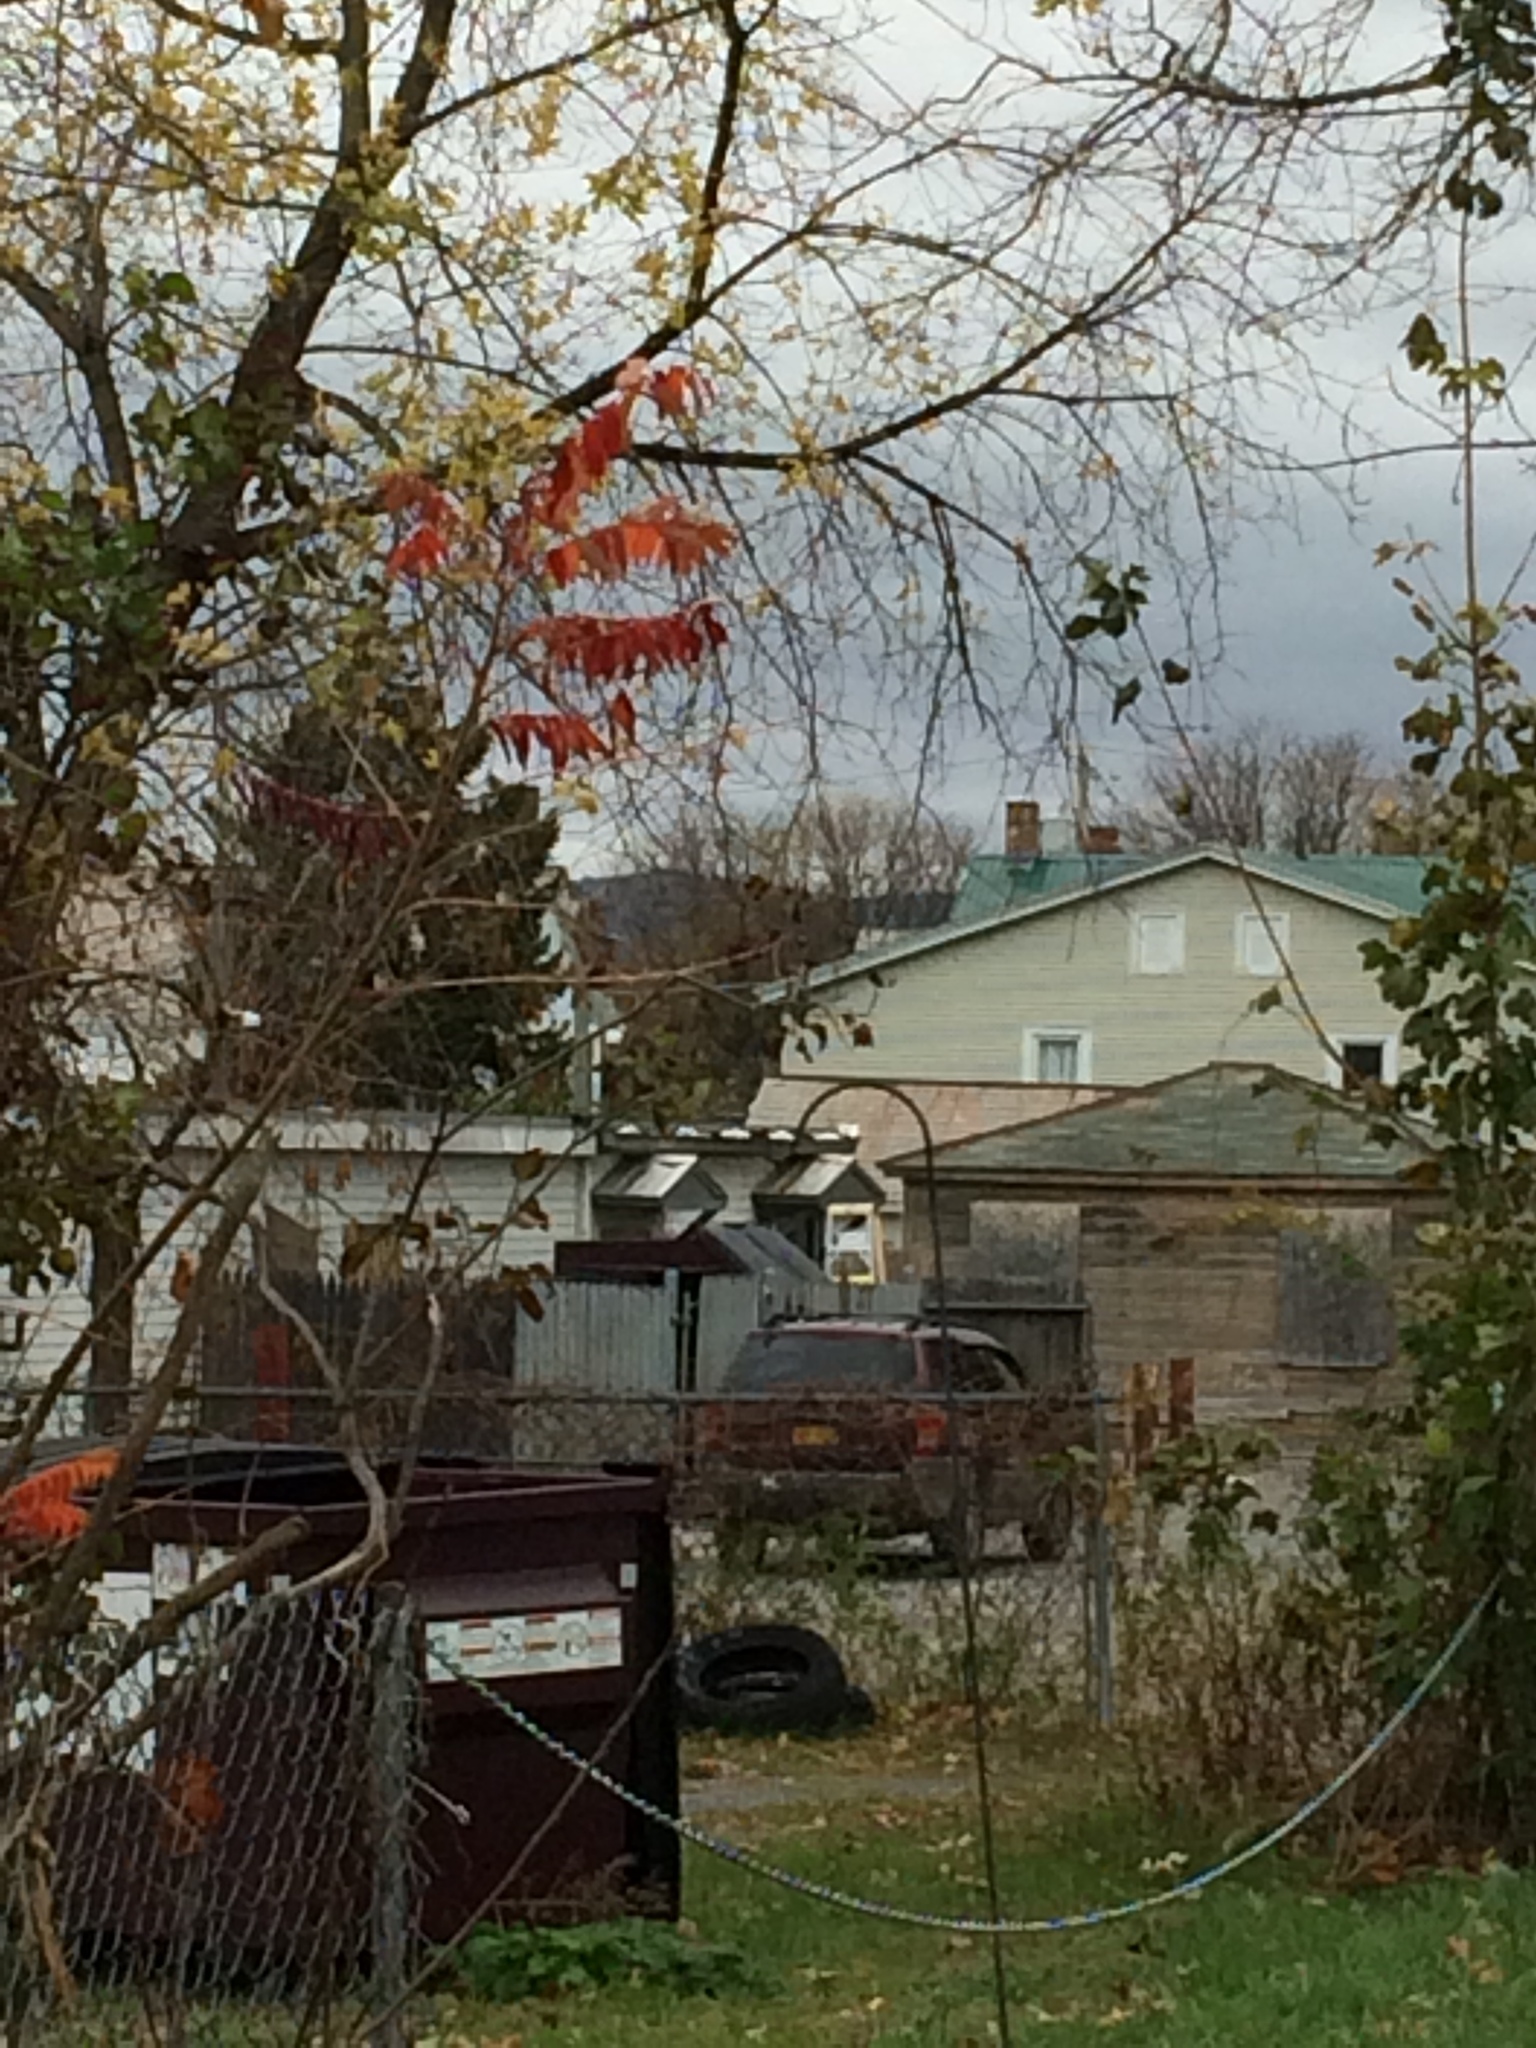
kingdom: Plantae
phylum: Tracheophyta
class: Magnoliopsida
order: Sapindales
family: Anacardiaceae
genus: Rhus
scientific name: Rhus typhina
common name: Staghorn sumac
